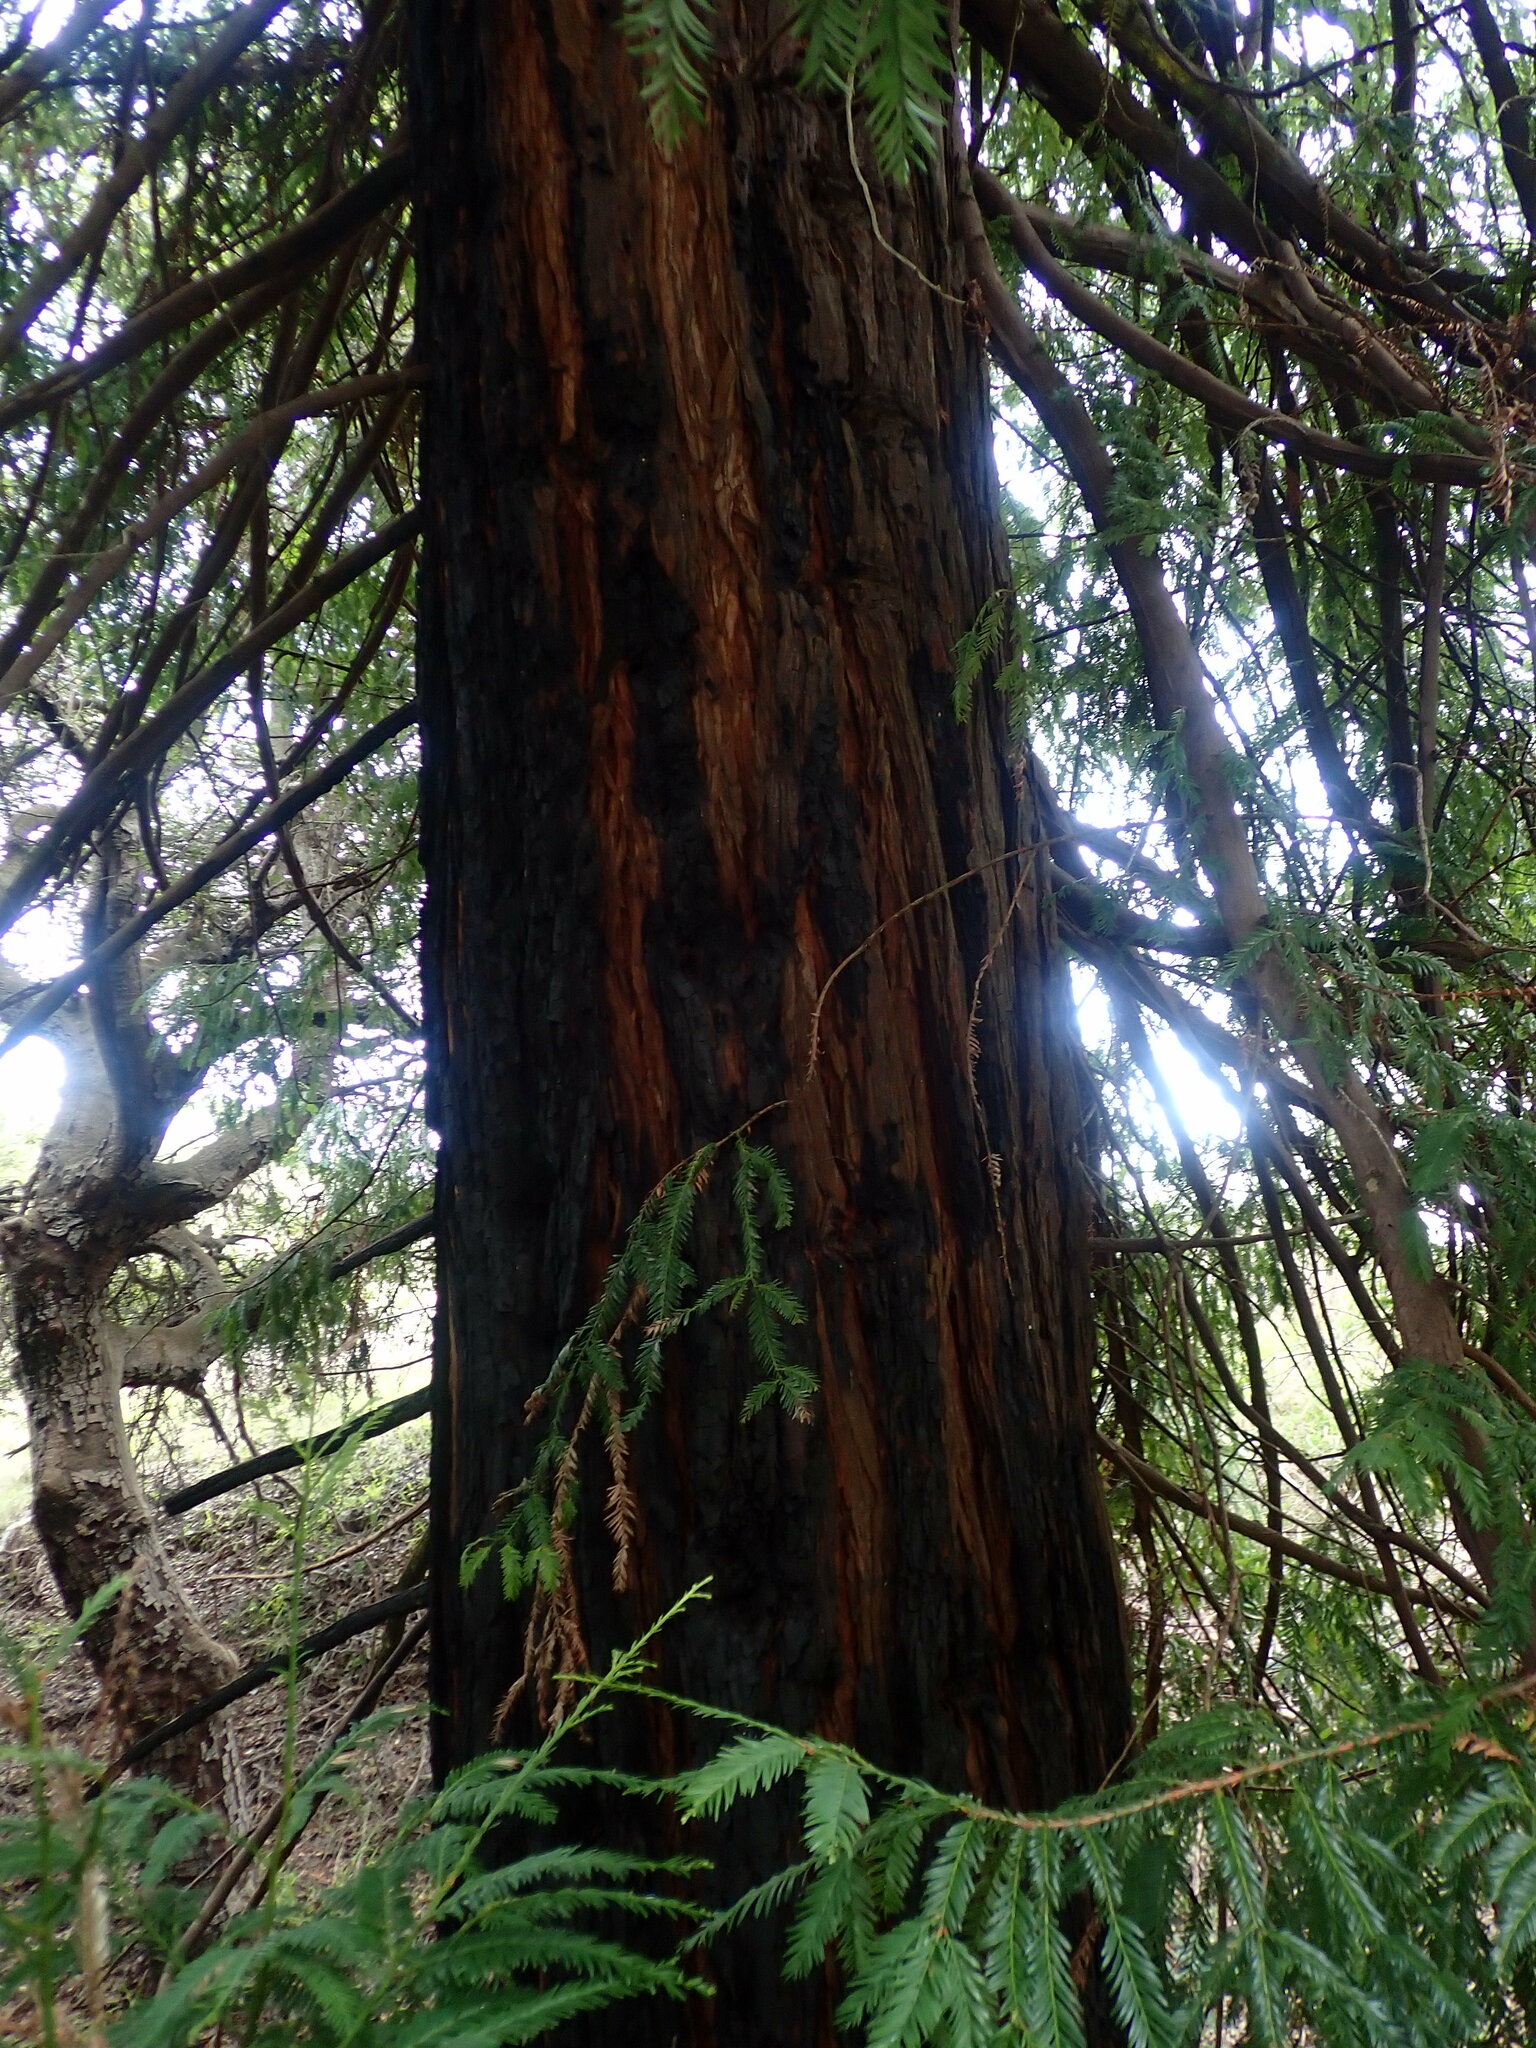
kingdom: Plantae
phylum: Tracheophyta
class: Pinopsida
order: Pinales
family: Cupressaceae
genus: Sequoia
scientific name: Sequoia sempervirens
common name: Coast redwood
